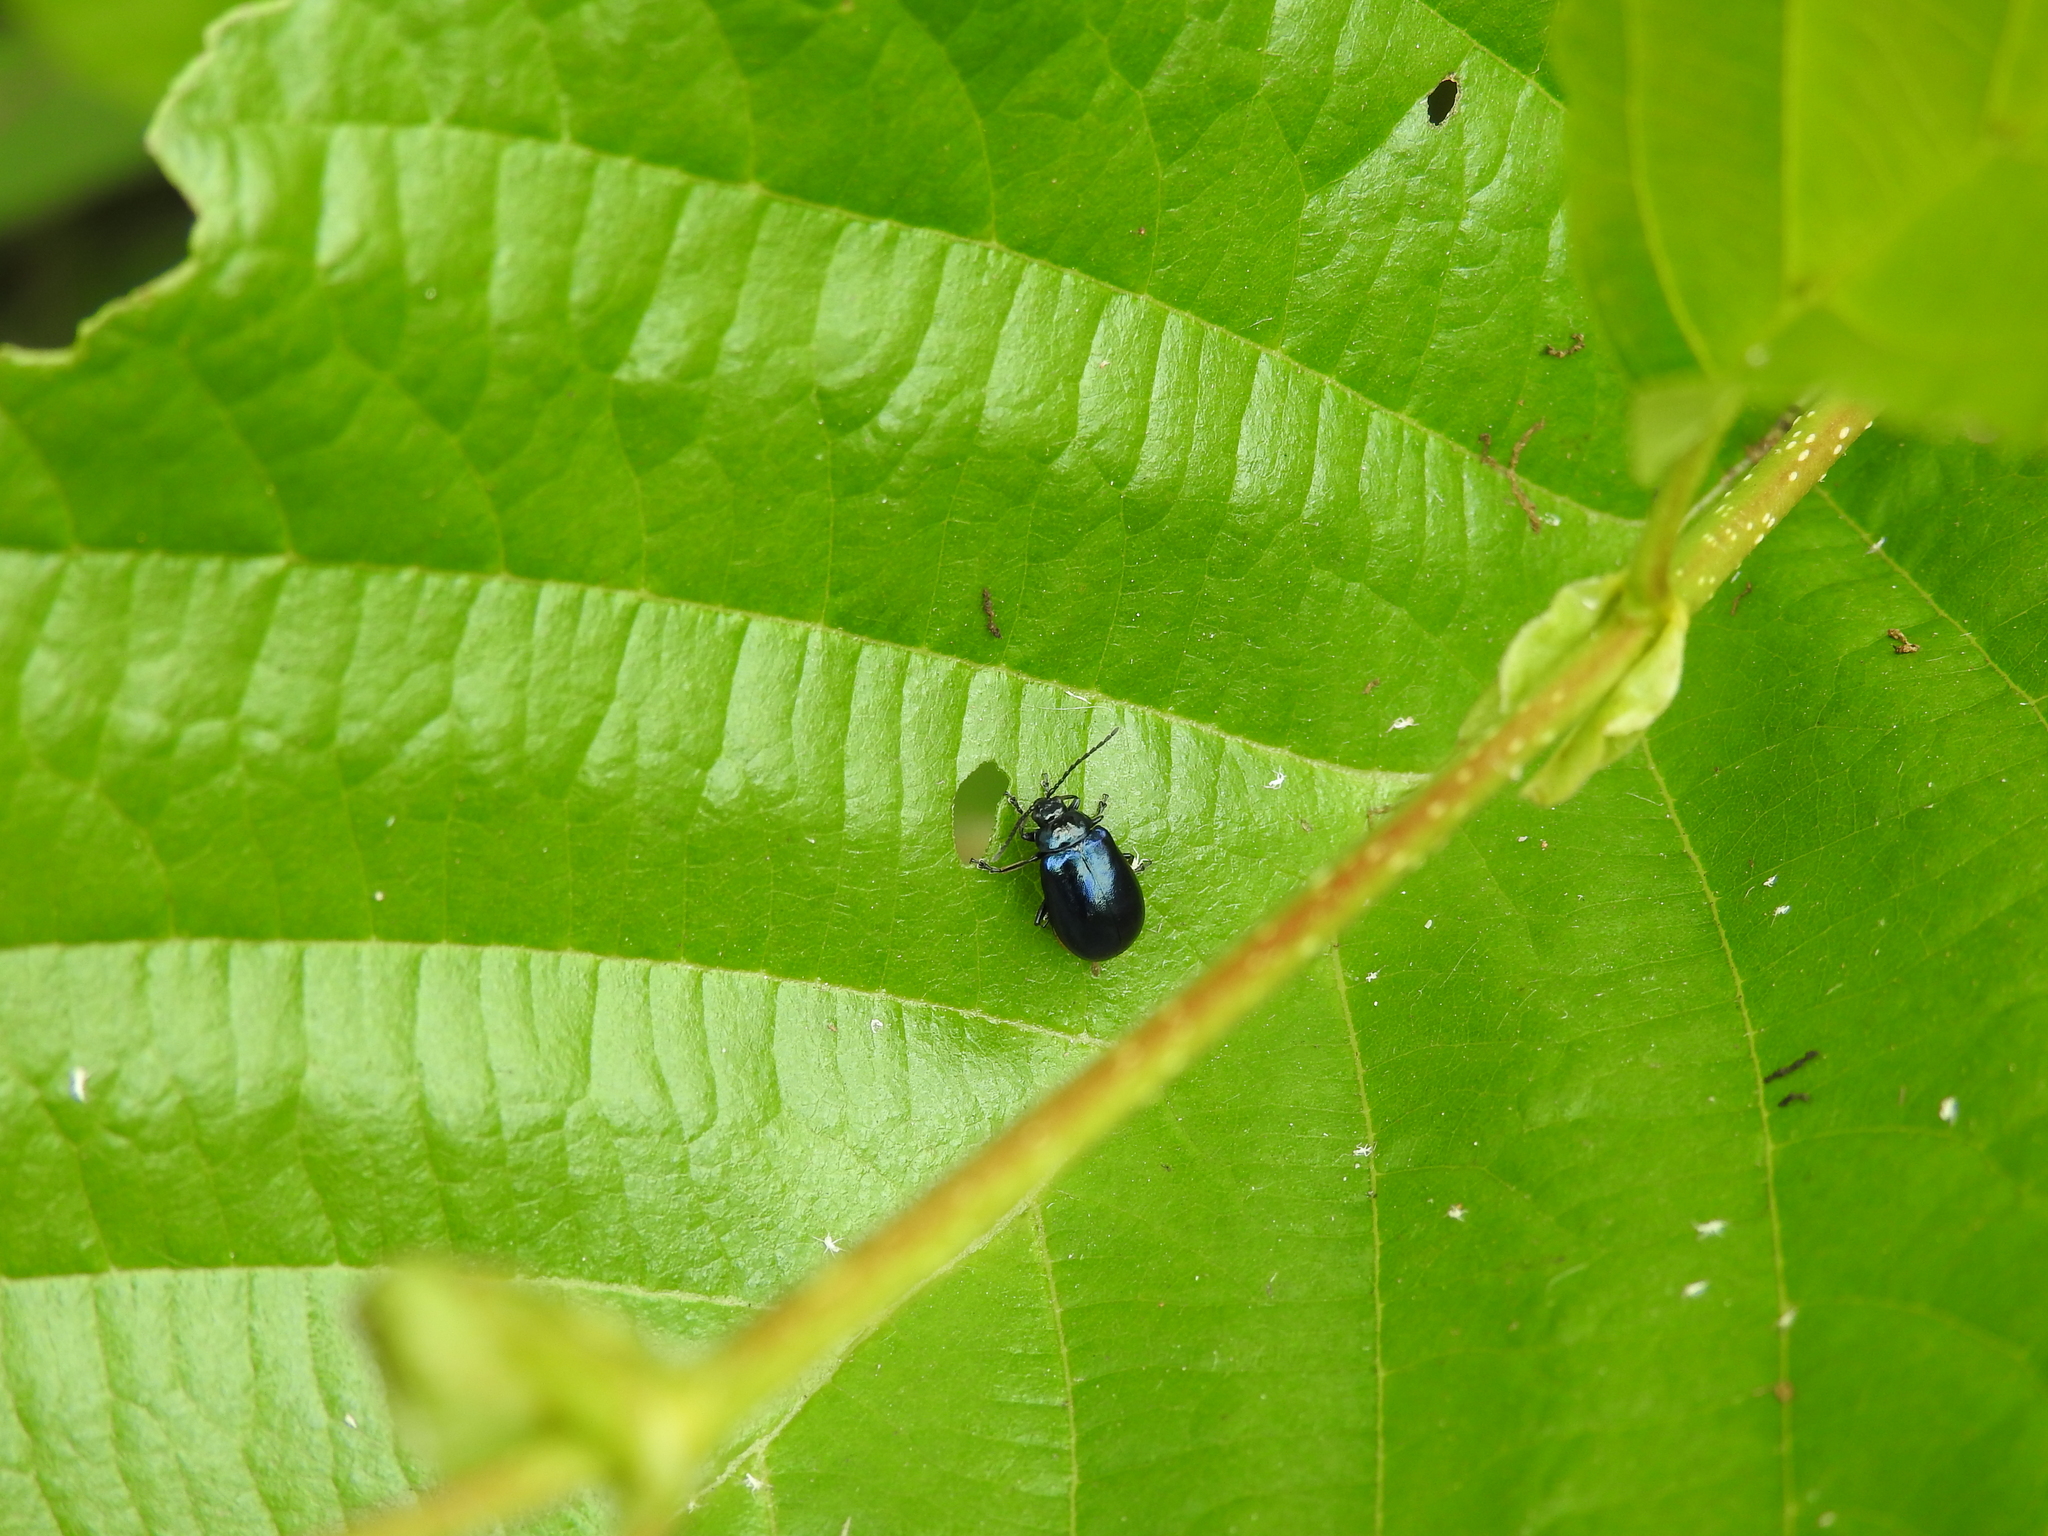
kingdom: Animalia
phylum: Arthropoda
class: Insecta
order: Coleoptera
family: Chrysomelidae
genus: Agelastica
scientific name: Agelastica alni
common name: Alder leaf beetle
